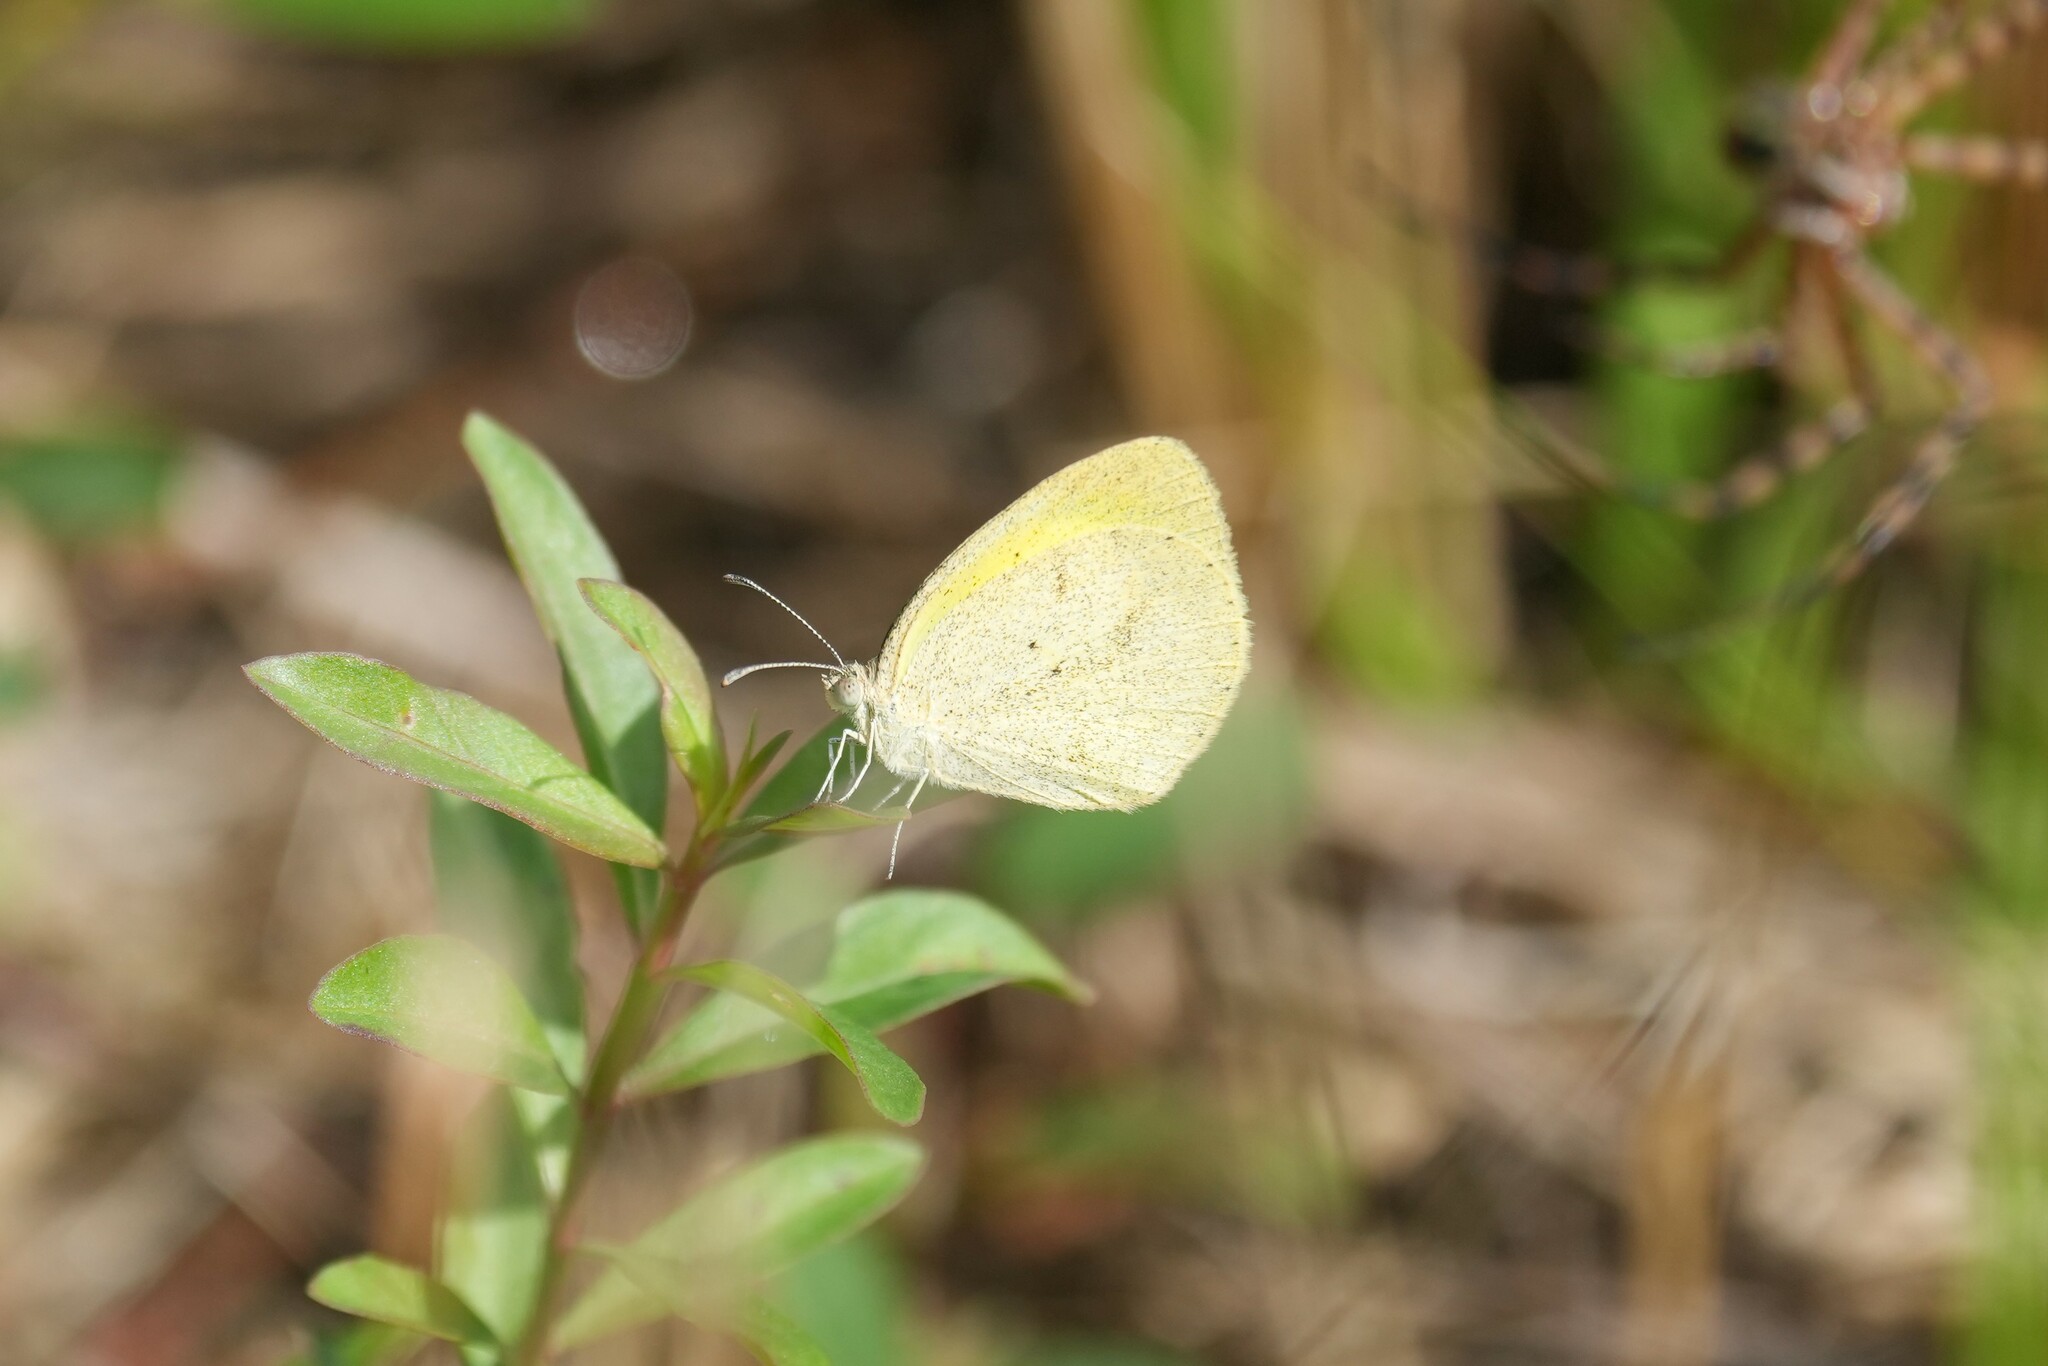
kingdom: Animalia
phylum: Arthropoda
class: Insecta
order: Lepidoptera
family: Pieridae
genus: Eurema
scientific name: Eurema daira
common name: Barred sulphur
